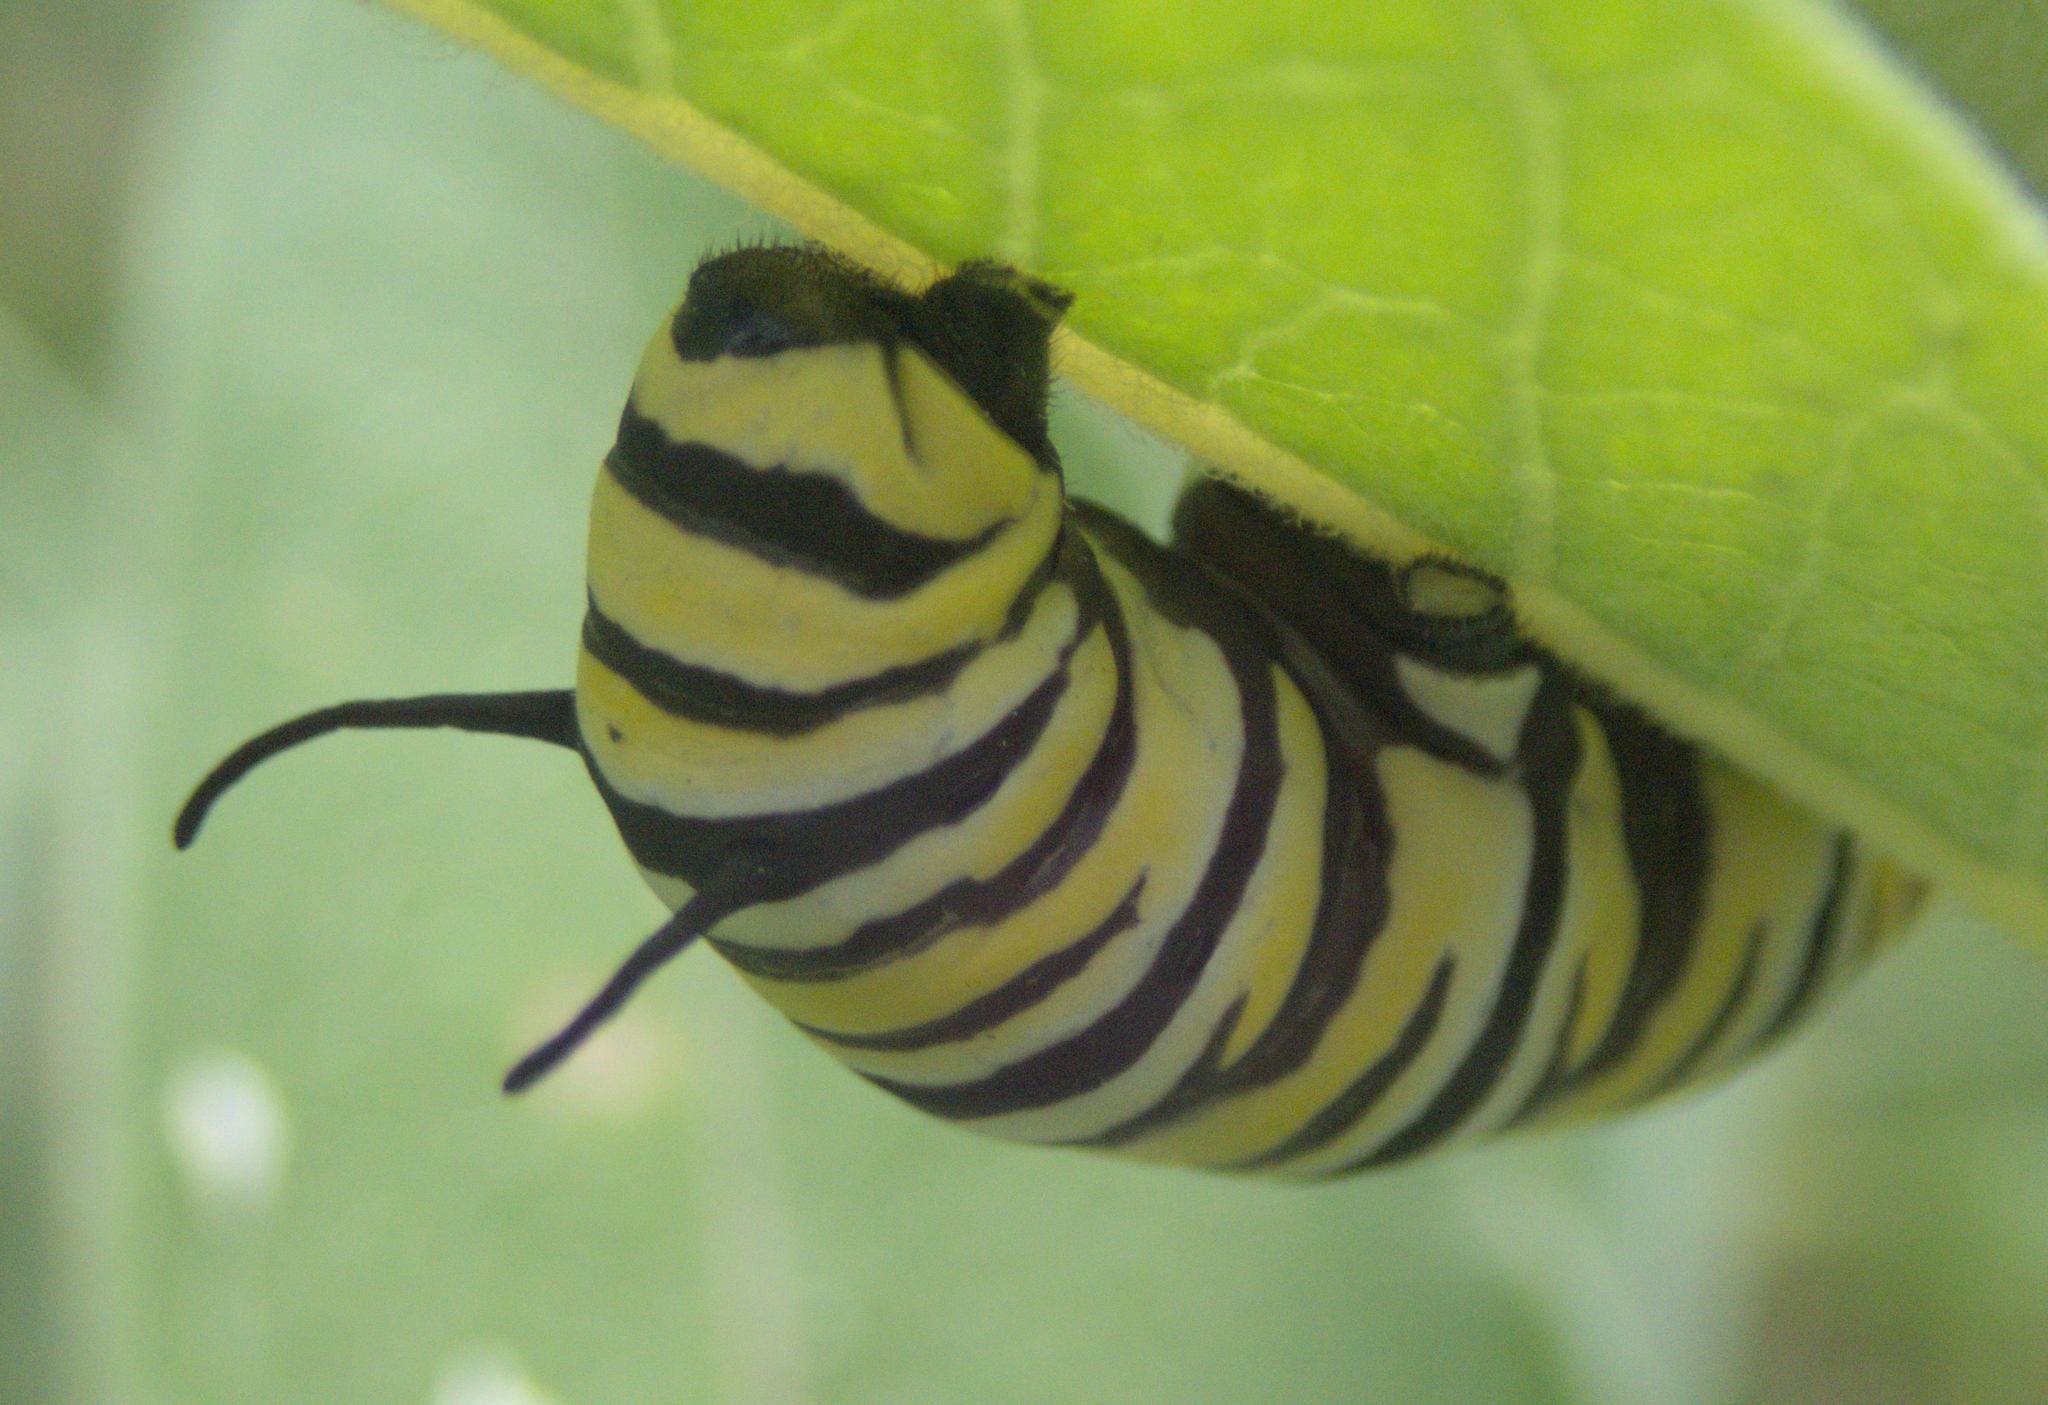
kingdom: Animalia
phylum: Arthropoda
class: Insecta
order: Lepidoptera
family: Nymphalidae
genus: Danaus
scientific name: Danaus plexippus
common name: Monarch
